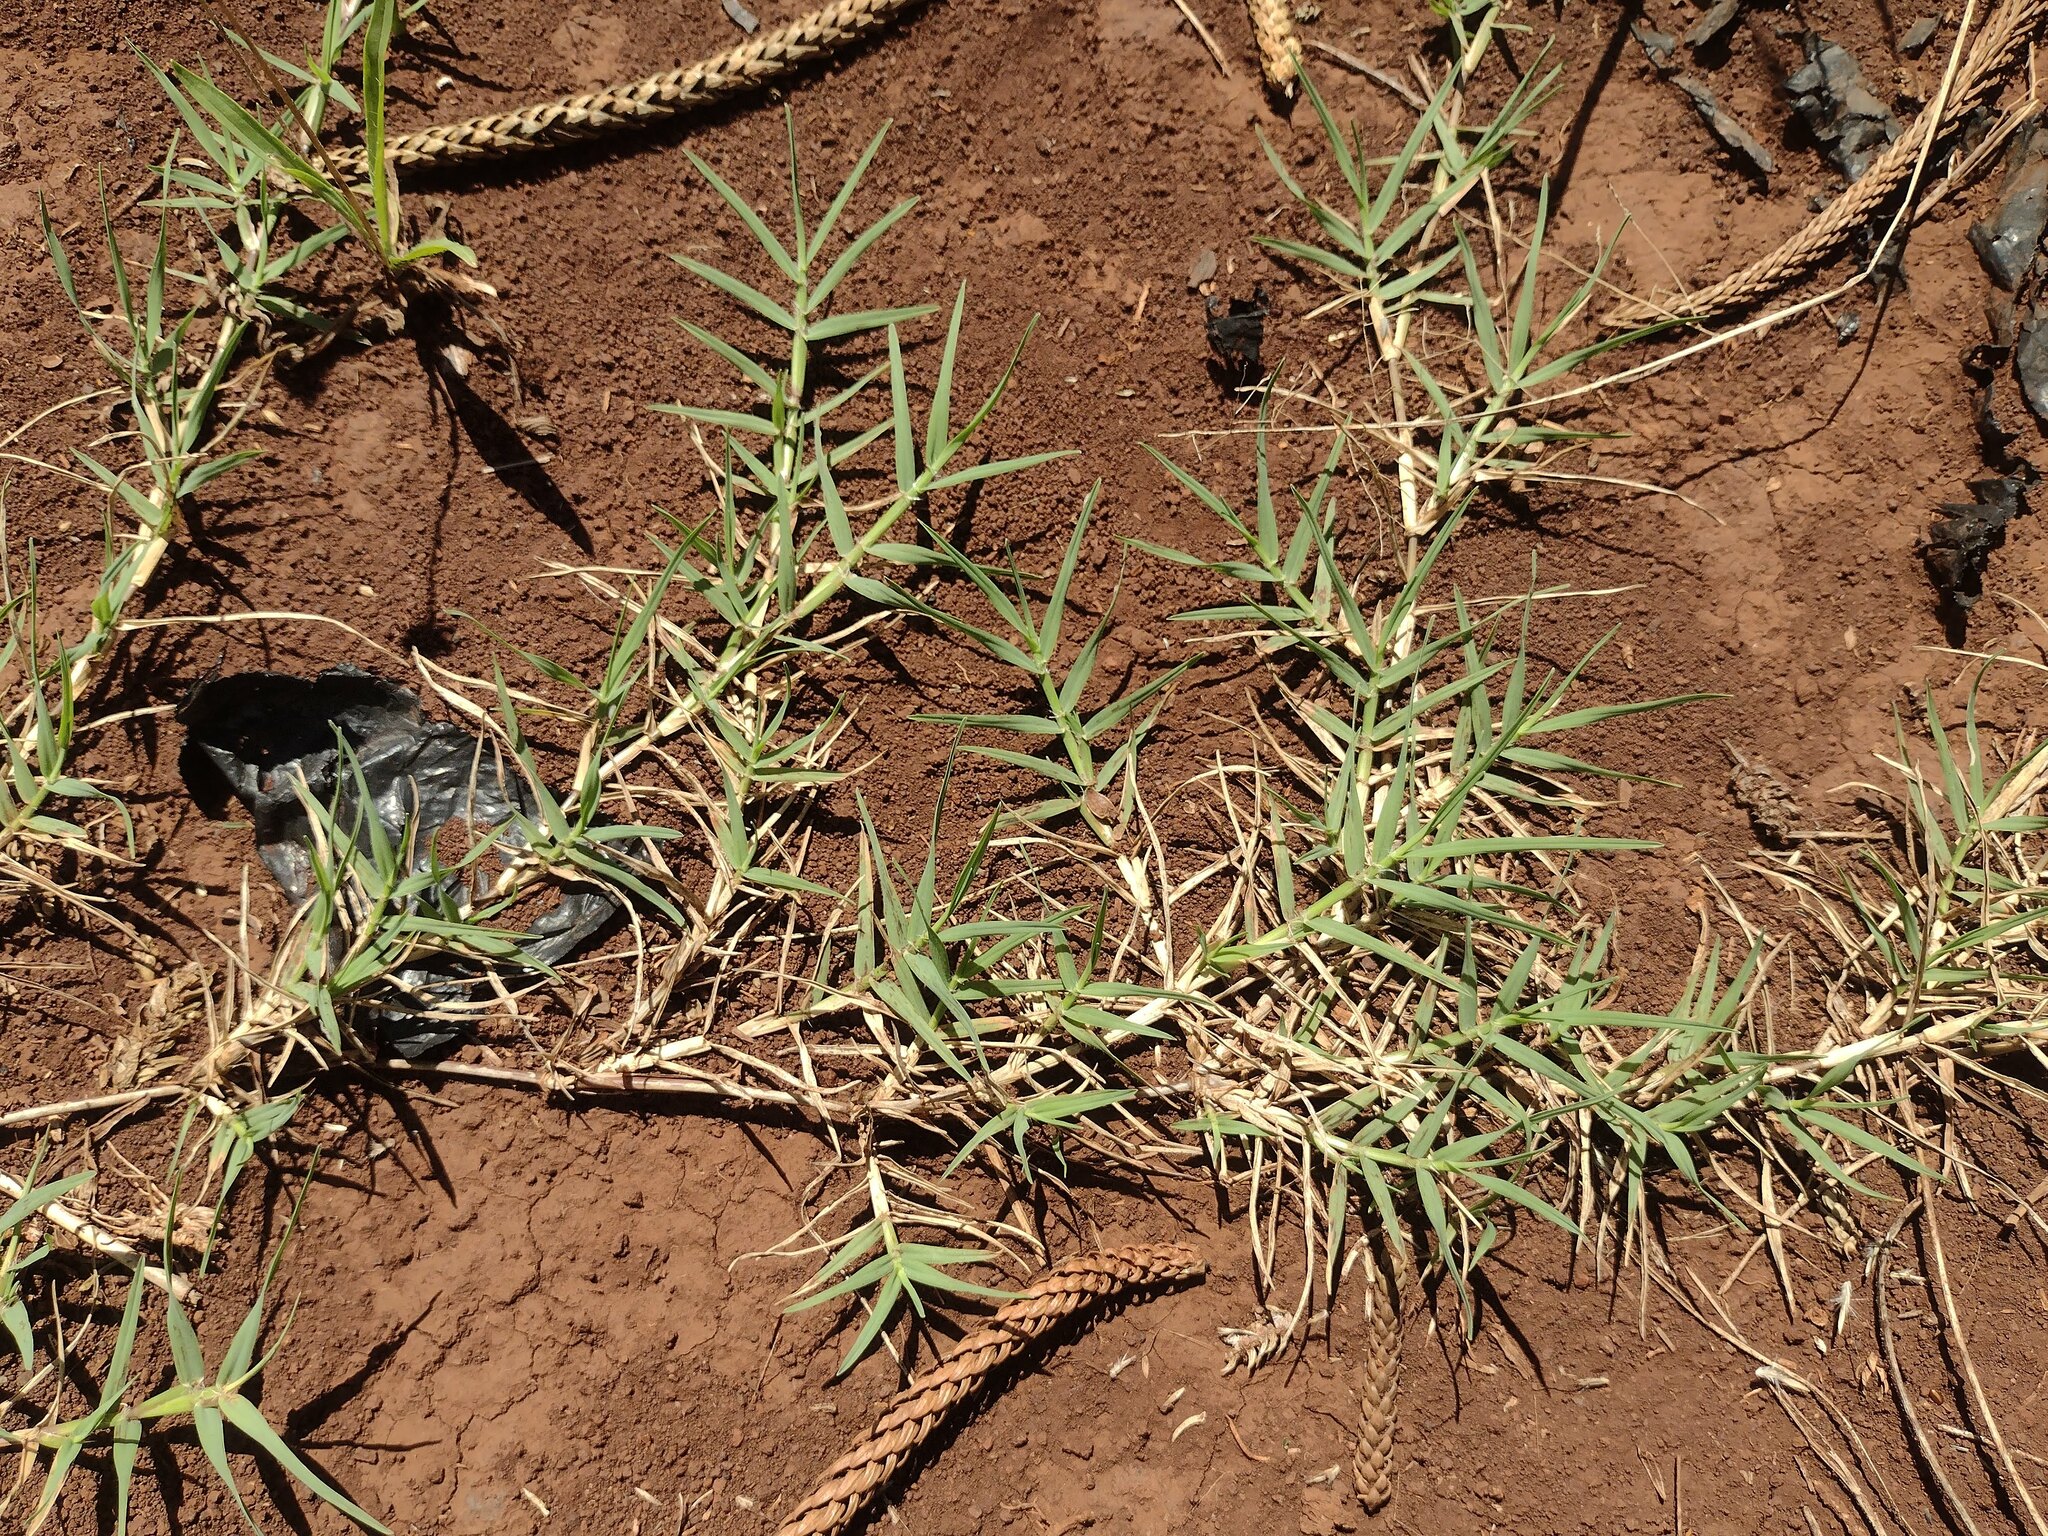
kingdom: Plantae
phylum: Tracheophyta
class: Liliopsida
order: Poales
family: Poaceae
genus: Cynodon
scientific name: Cynodon dactylon
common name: Bermuda grass
